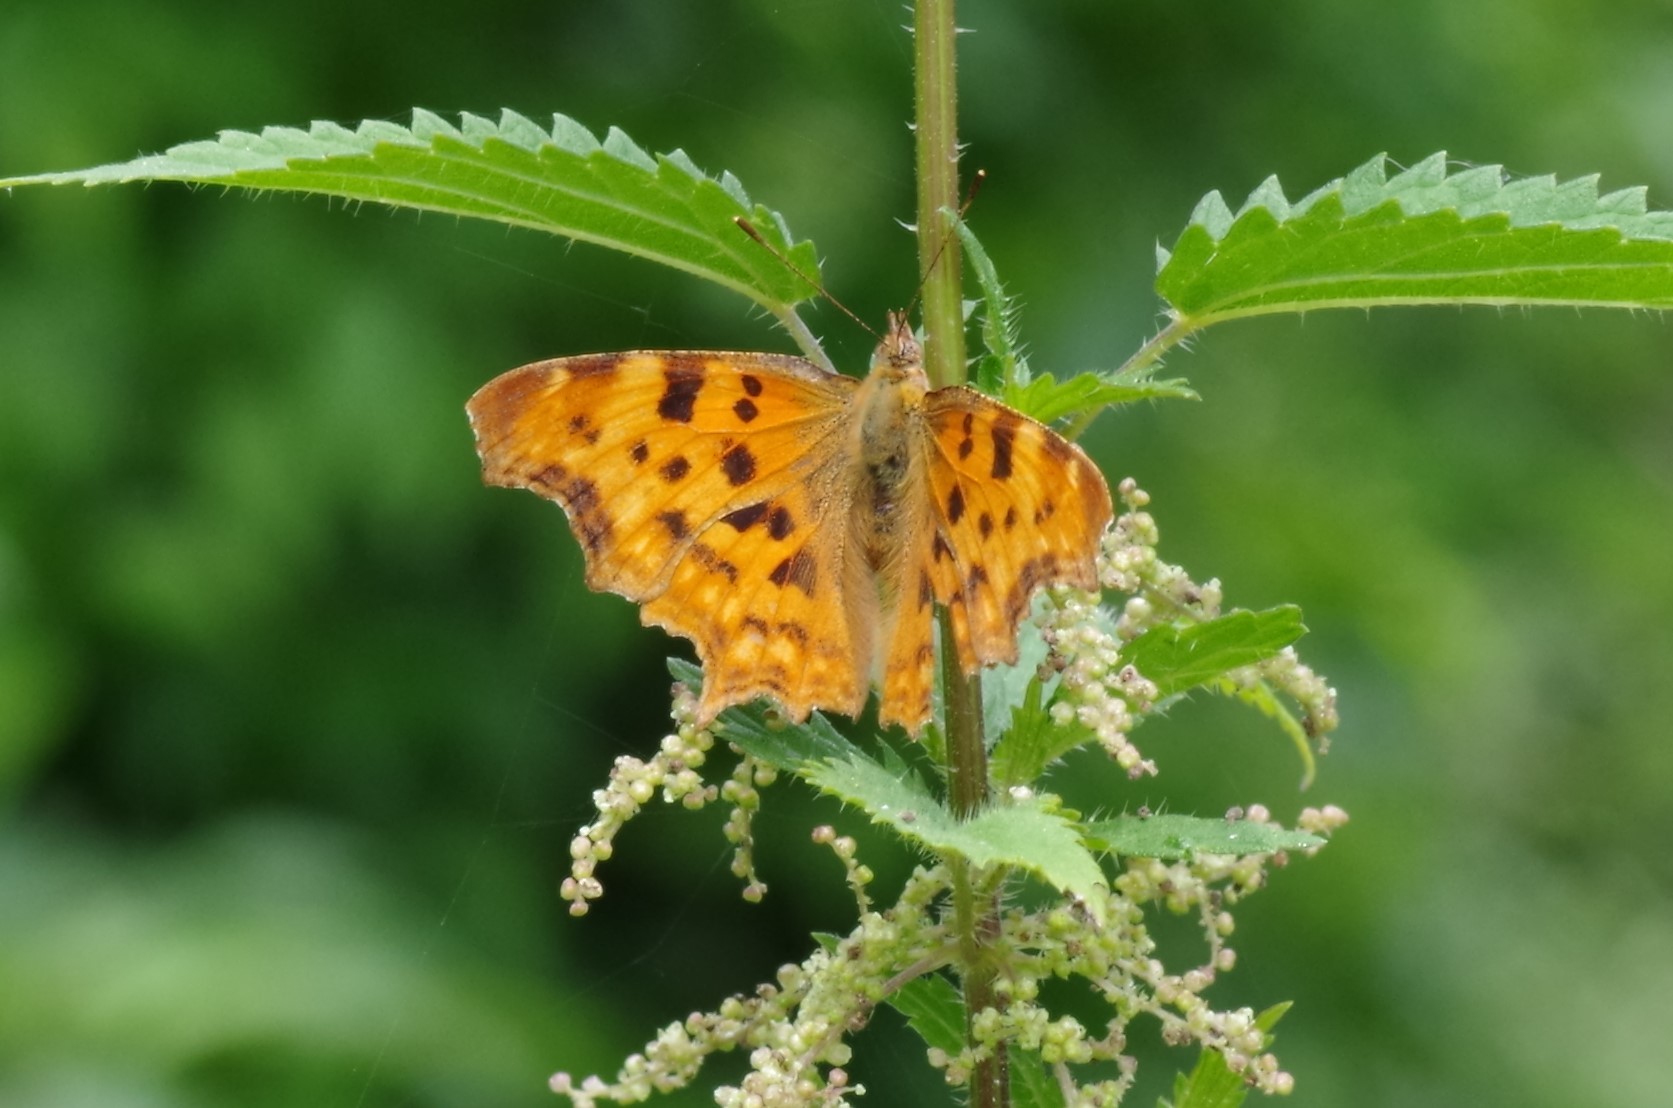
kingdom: Animalia
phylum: Arthropoda
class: Insecta
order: Lepidoptera
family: Nymphalidae
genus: Polygonia
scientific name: Polygonia c-album
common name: Comma
